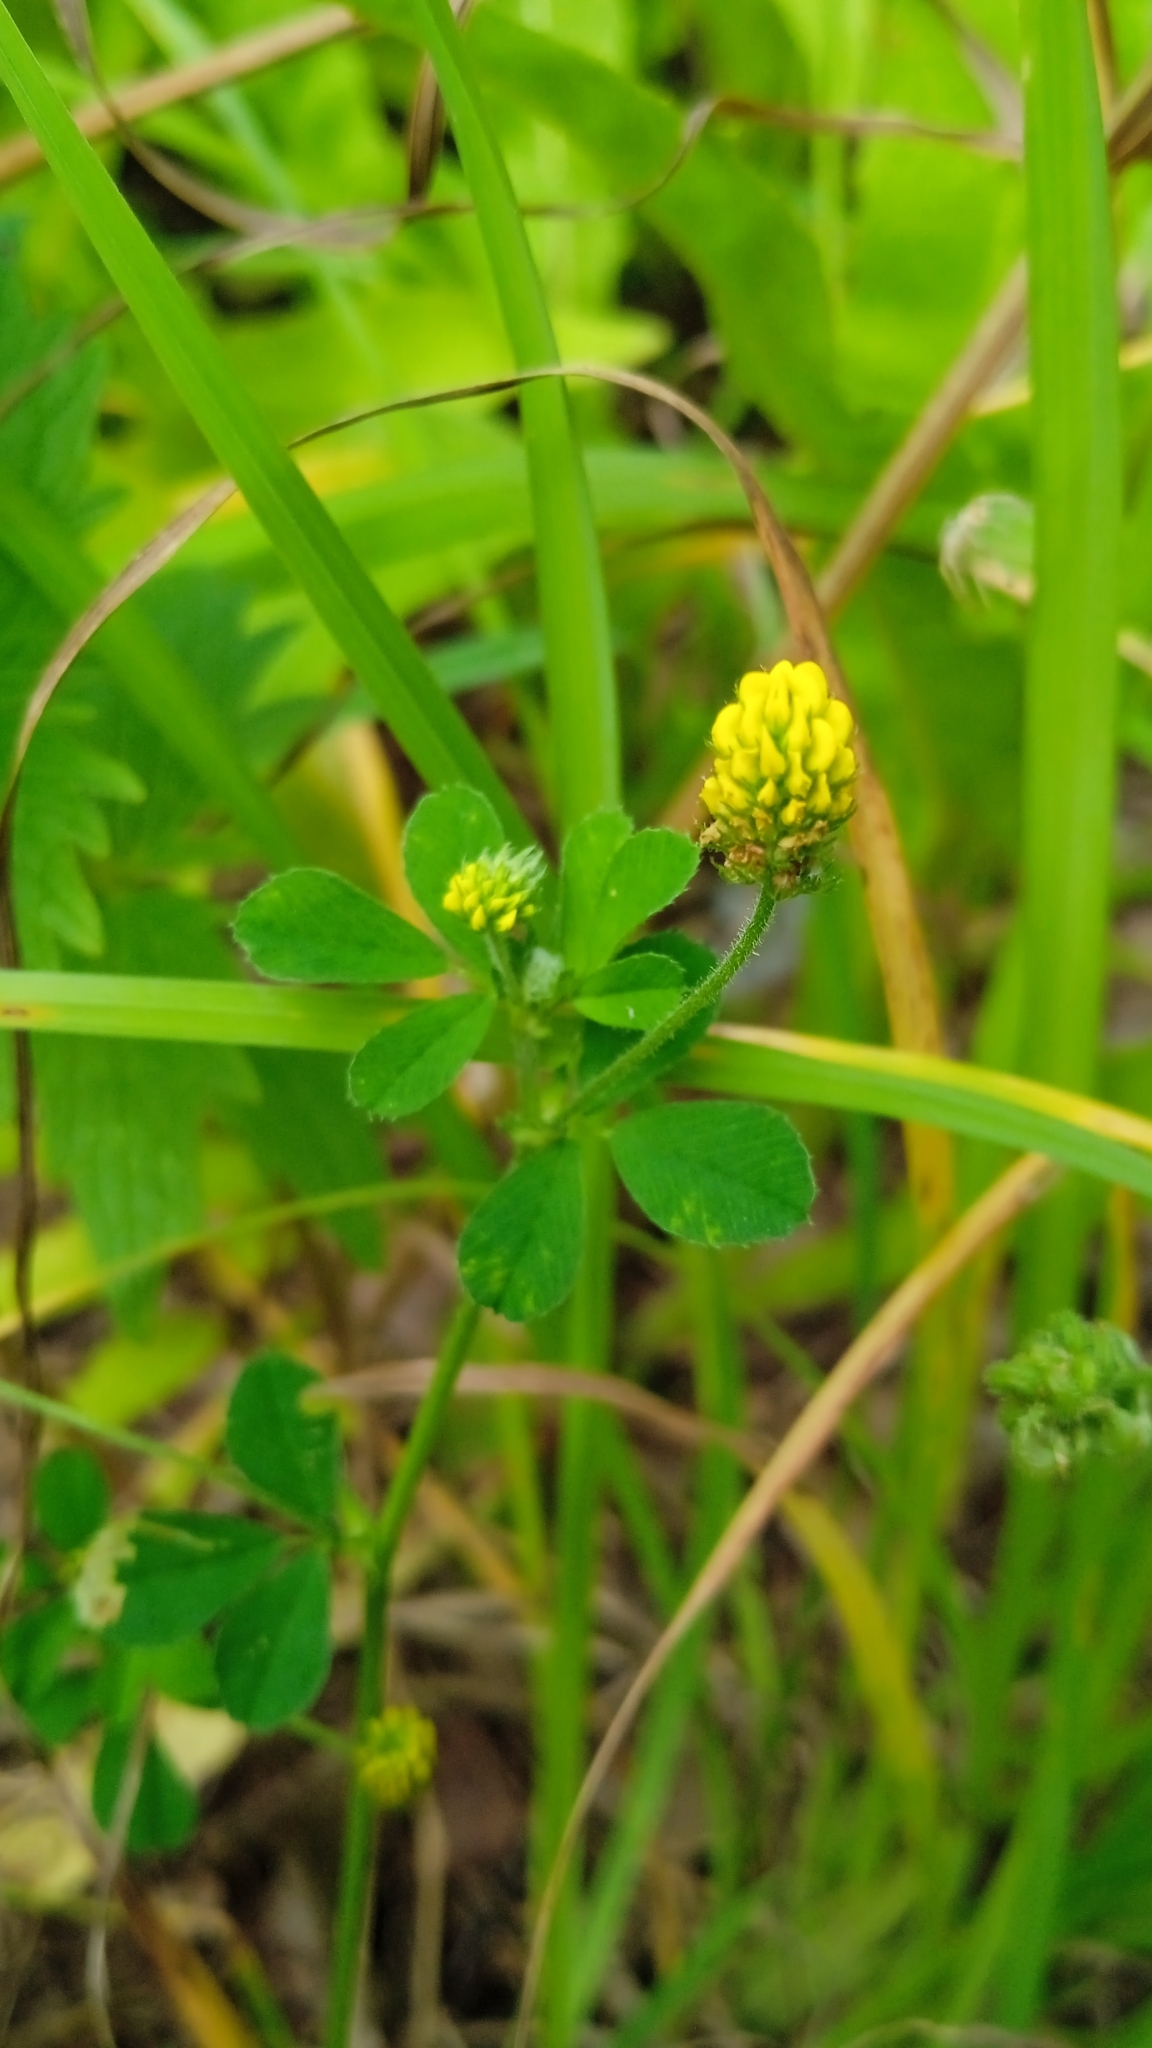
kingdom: Plantae
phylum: Tracheophyta
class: Magnoliopsida
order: Fabales
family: Fabaceae
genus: Medicago
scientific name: Medicago lupulina
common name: Black medick
